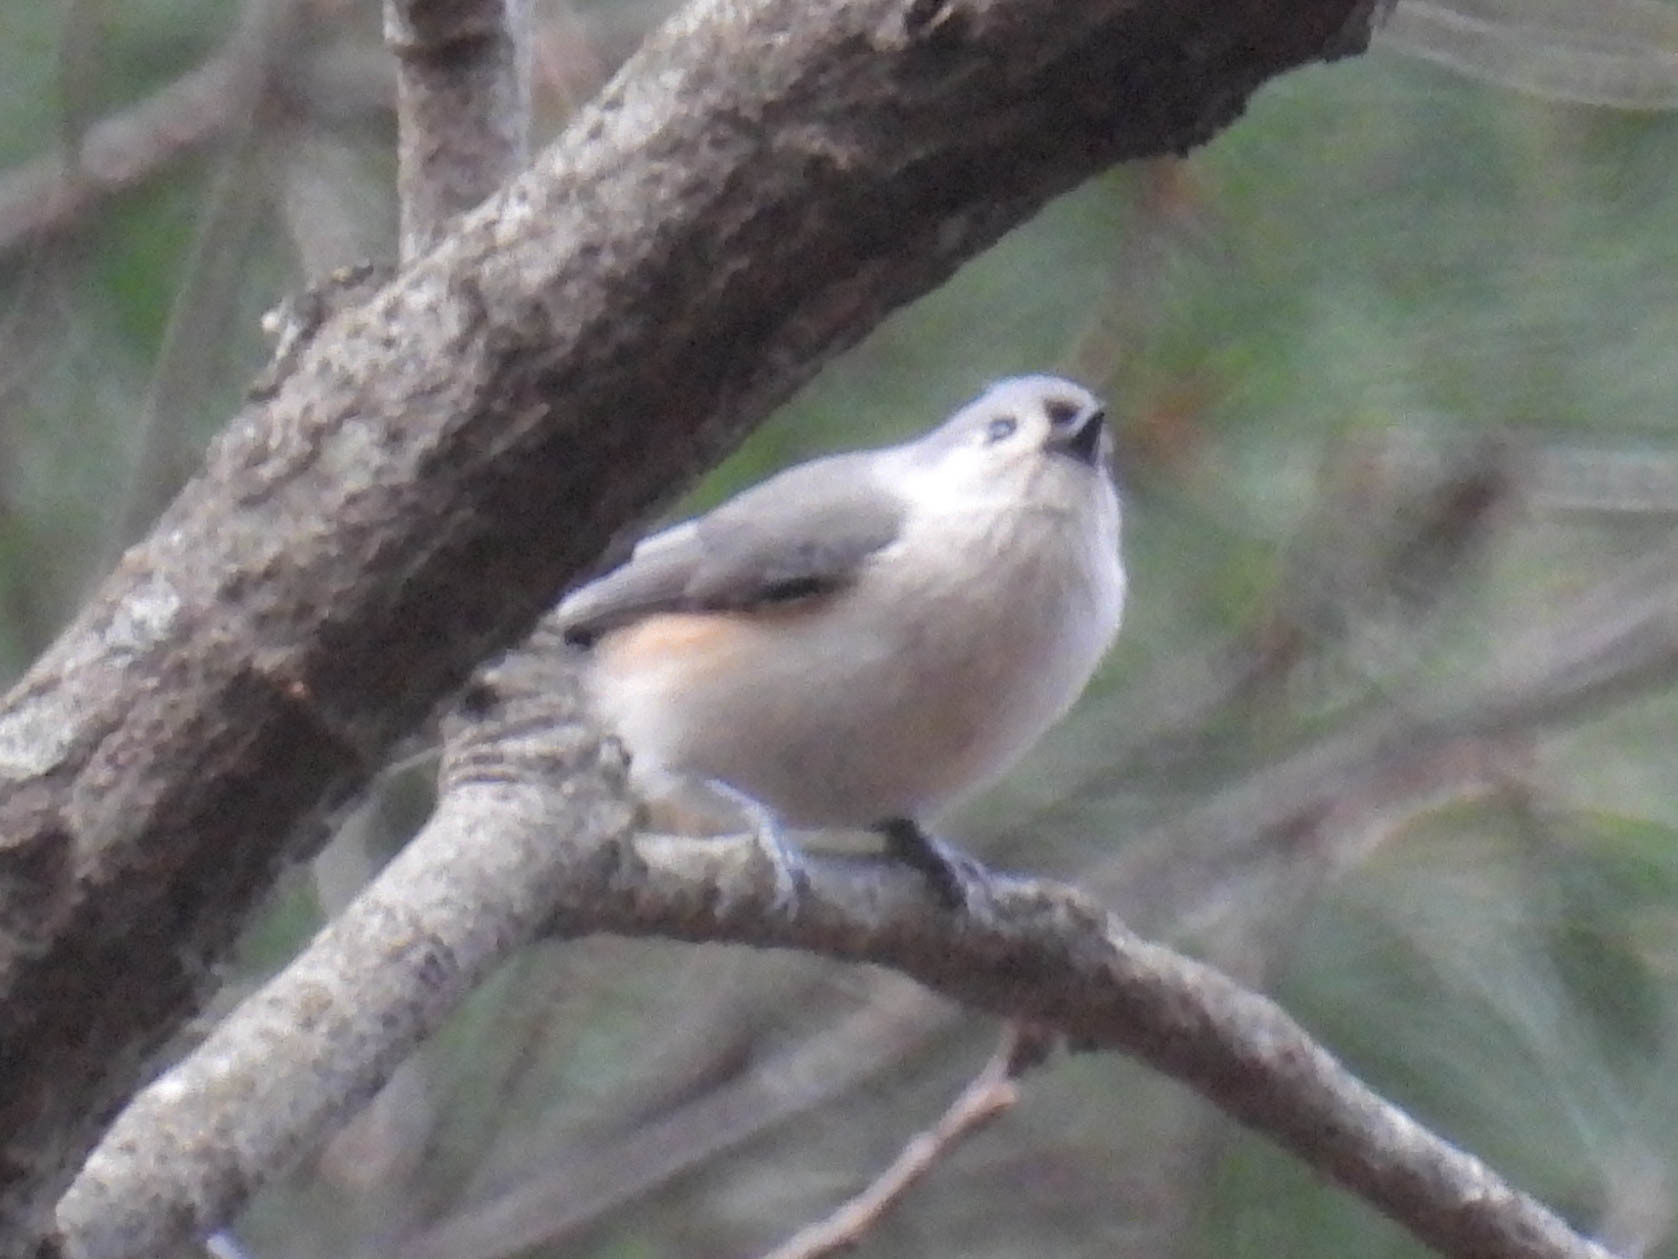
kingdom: Animalia
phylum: Chordata
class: Aves
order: Passeriformes
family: Paridae
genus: Baeolophus
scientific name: Baeolophus bicolor
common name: Tufted titmouse
